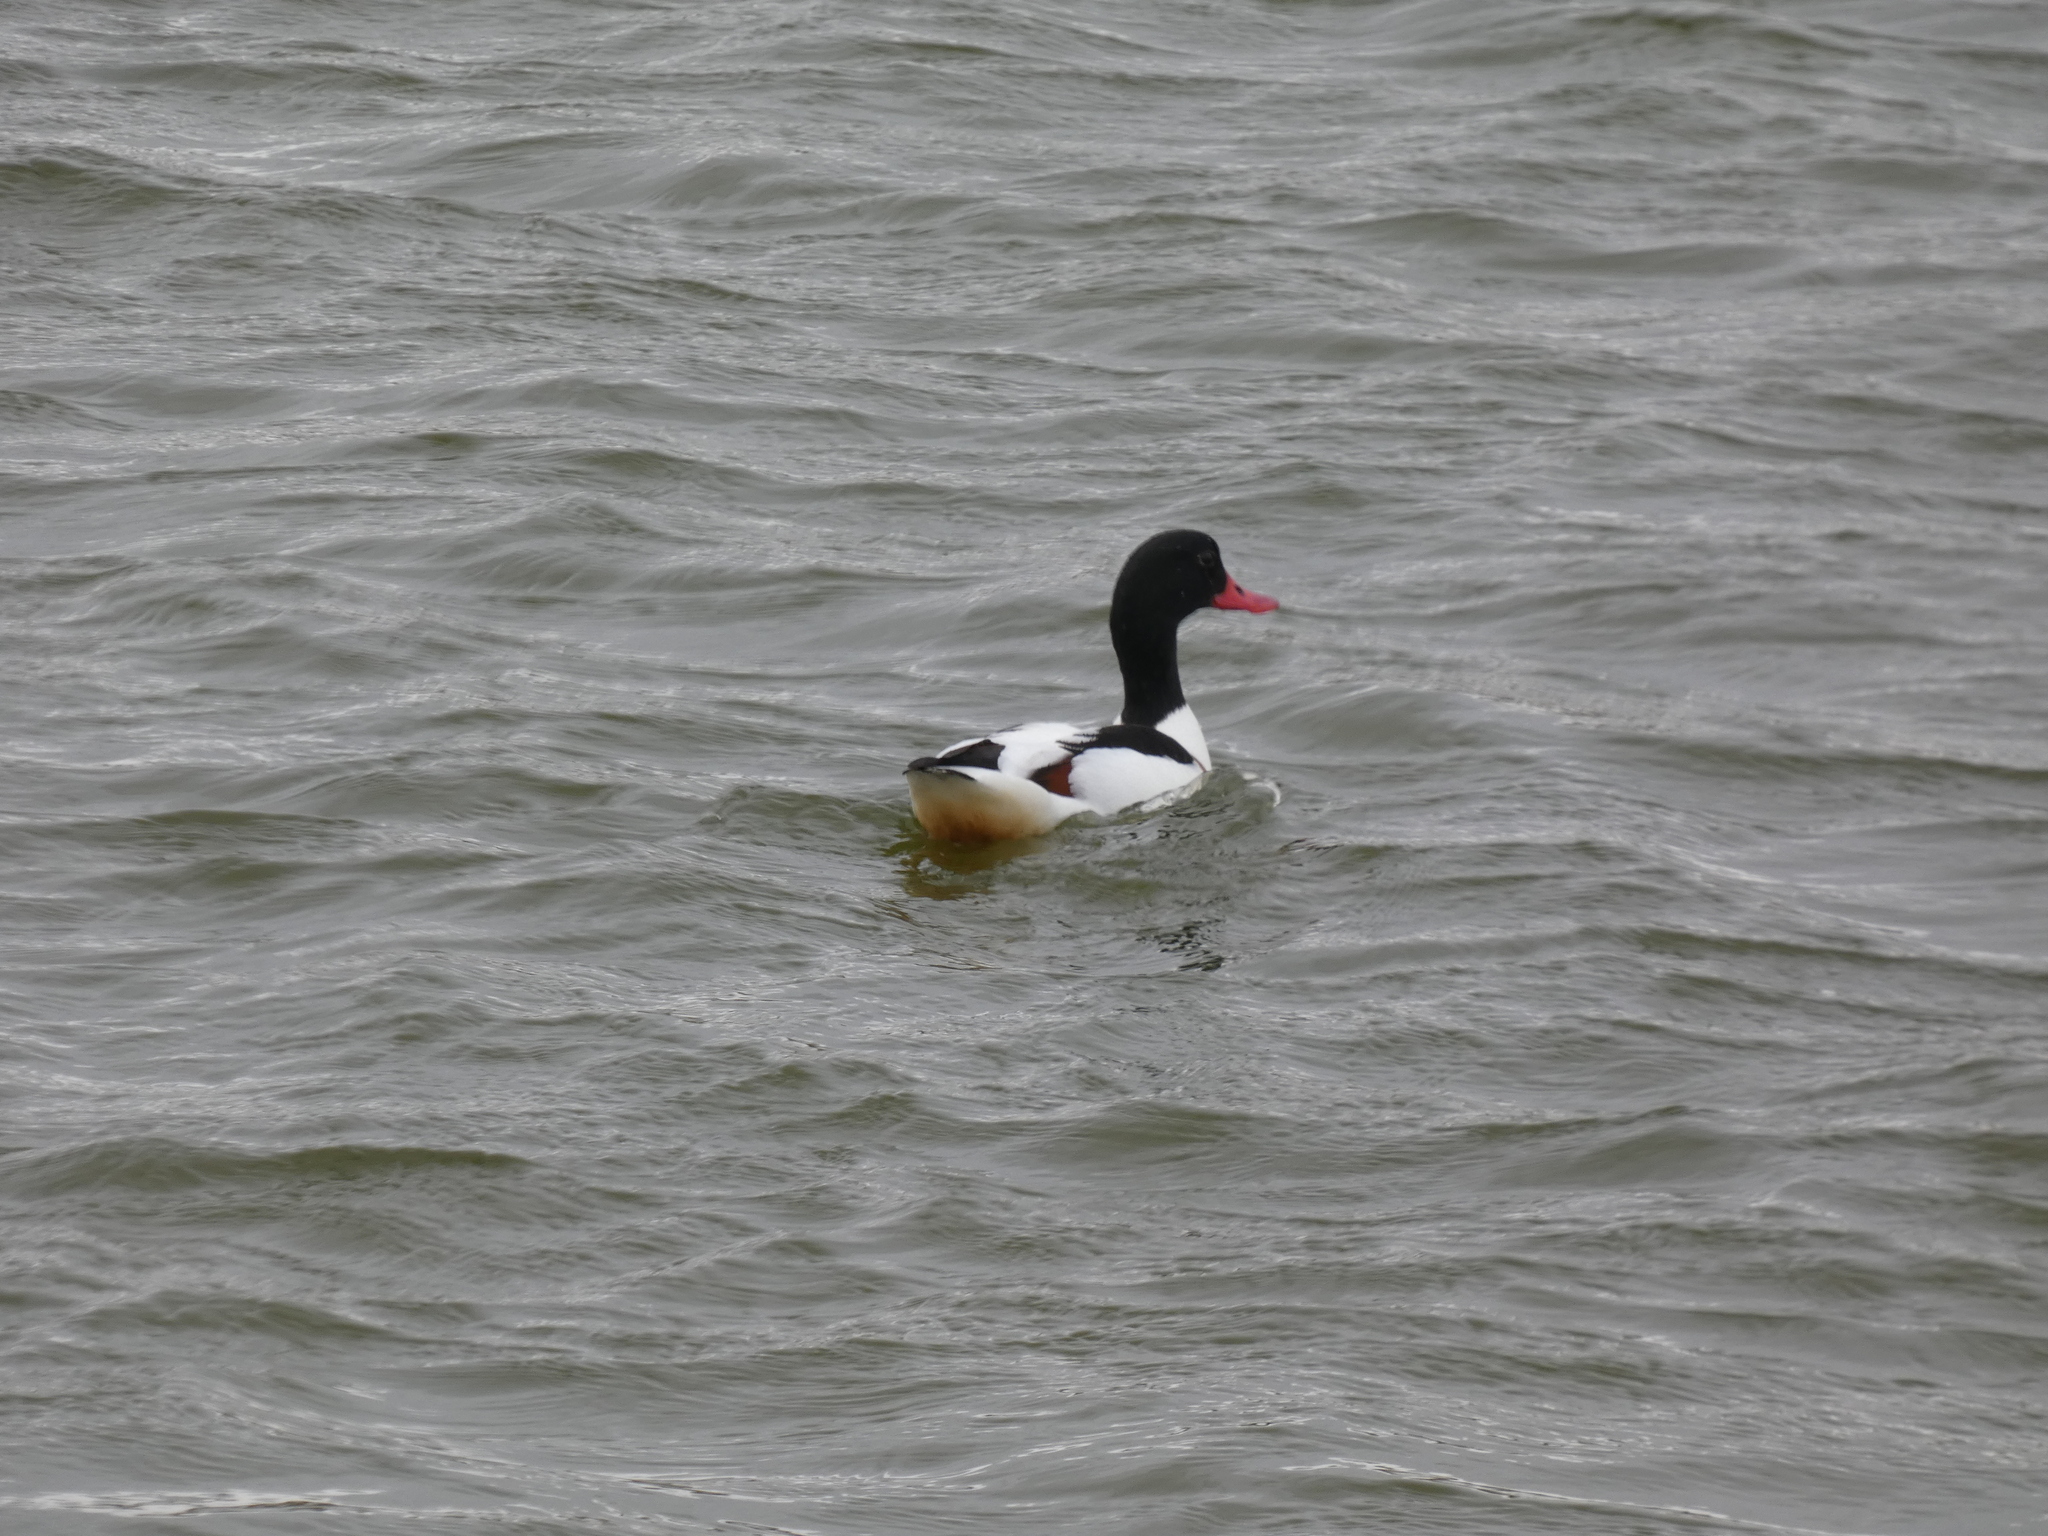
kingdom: Animalia
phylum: Chordata
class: Aves
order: Anseriformes
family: Anatidae
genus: Tadorna
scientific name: Tadorna tadorna
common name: Common shelduck
